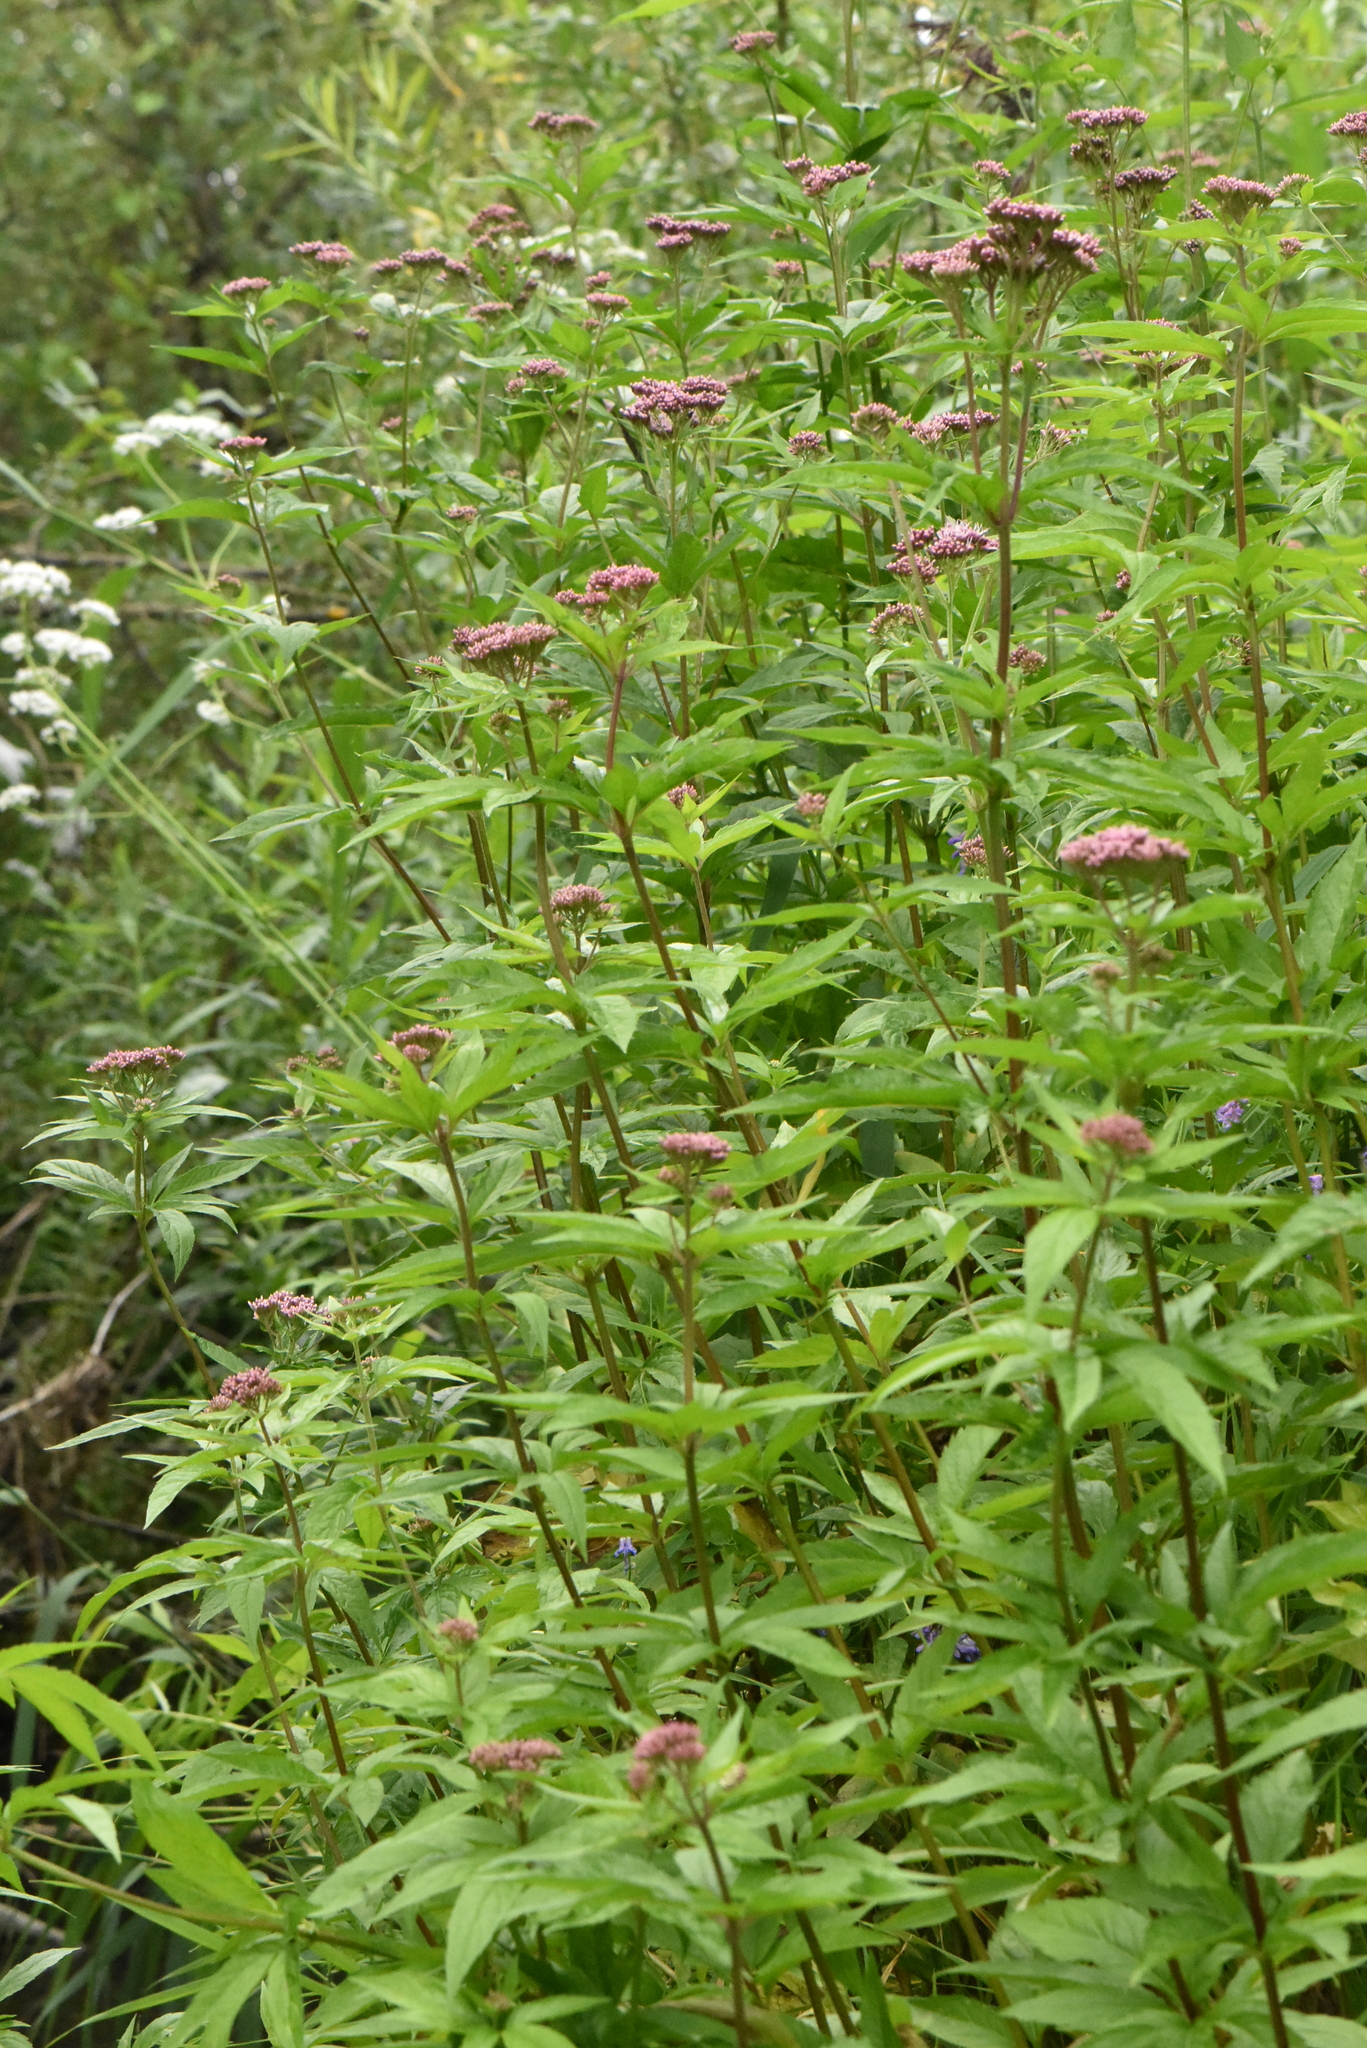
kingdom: Plantae
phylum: Tracheophyta
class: Magnoliopsida
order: Asterales
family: Asteraceae
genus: Eupatorium
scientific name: Eupatorium cannabinum
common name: Hemp-agrimony
